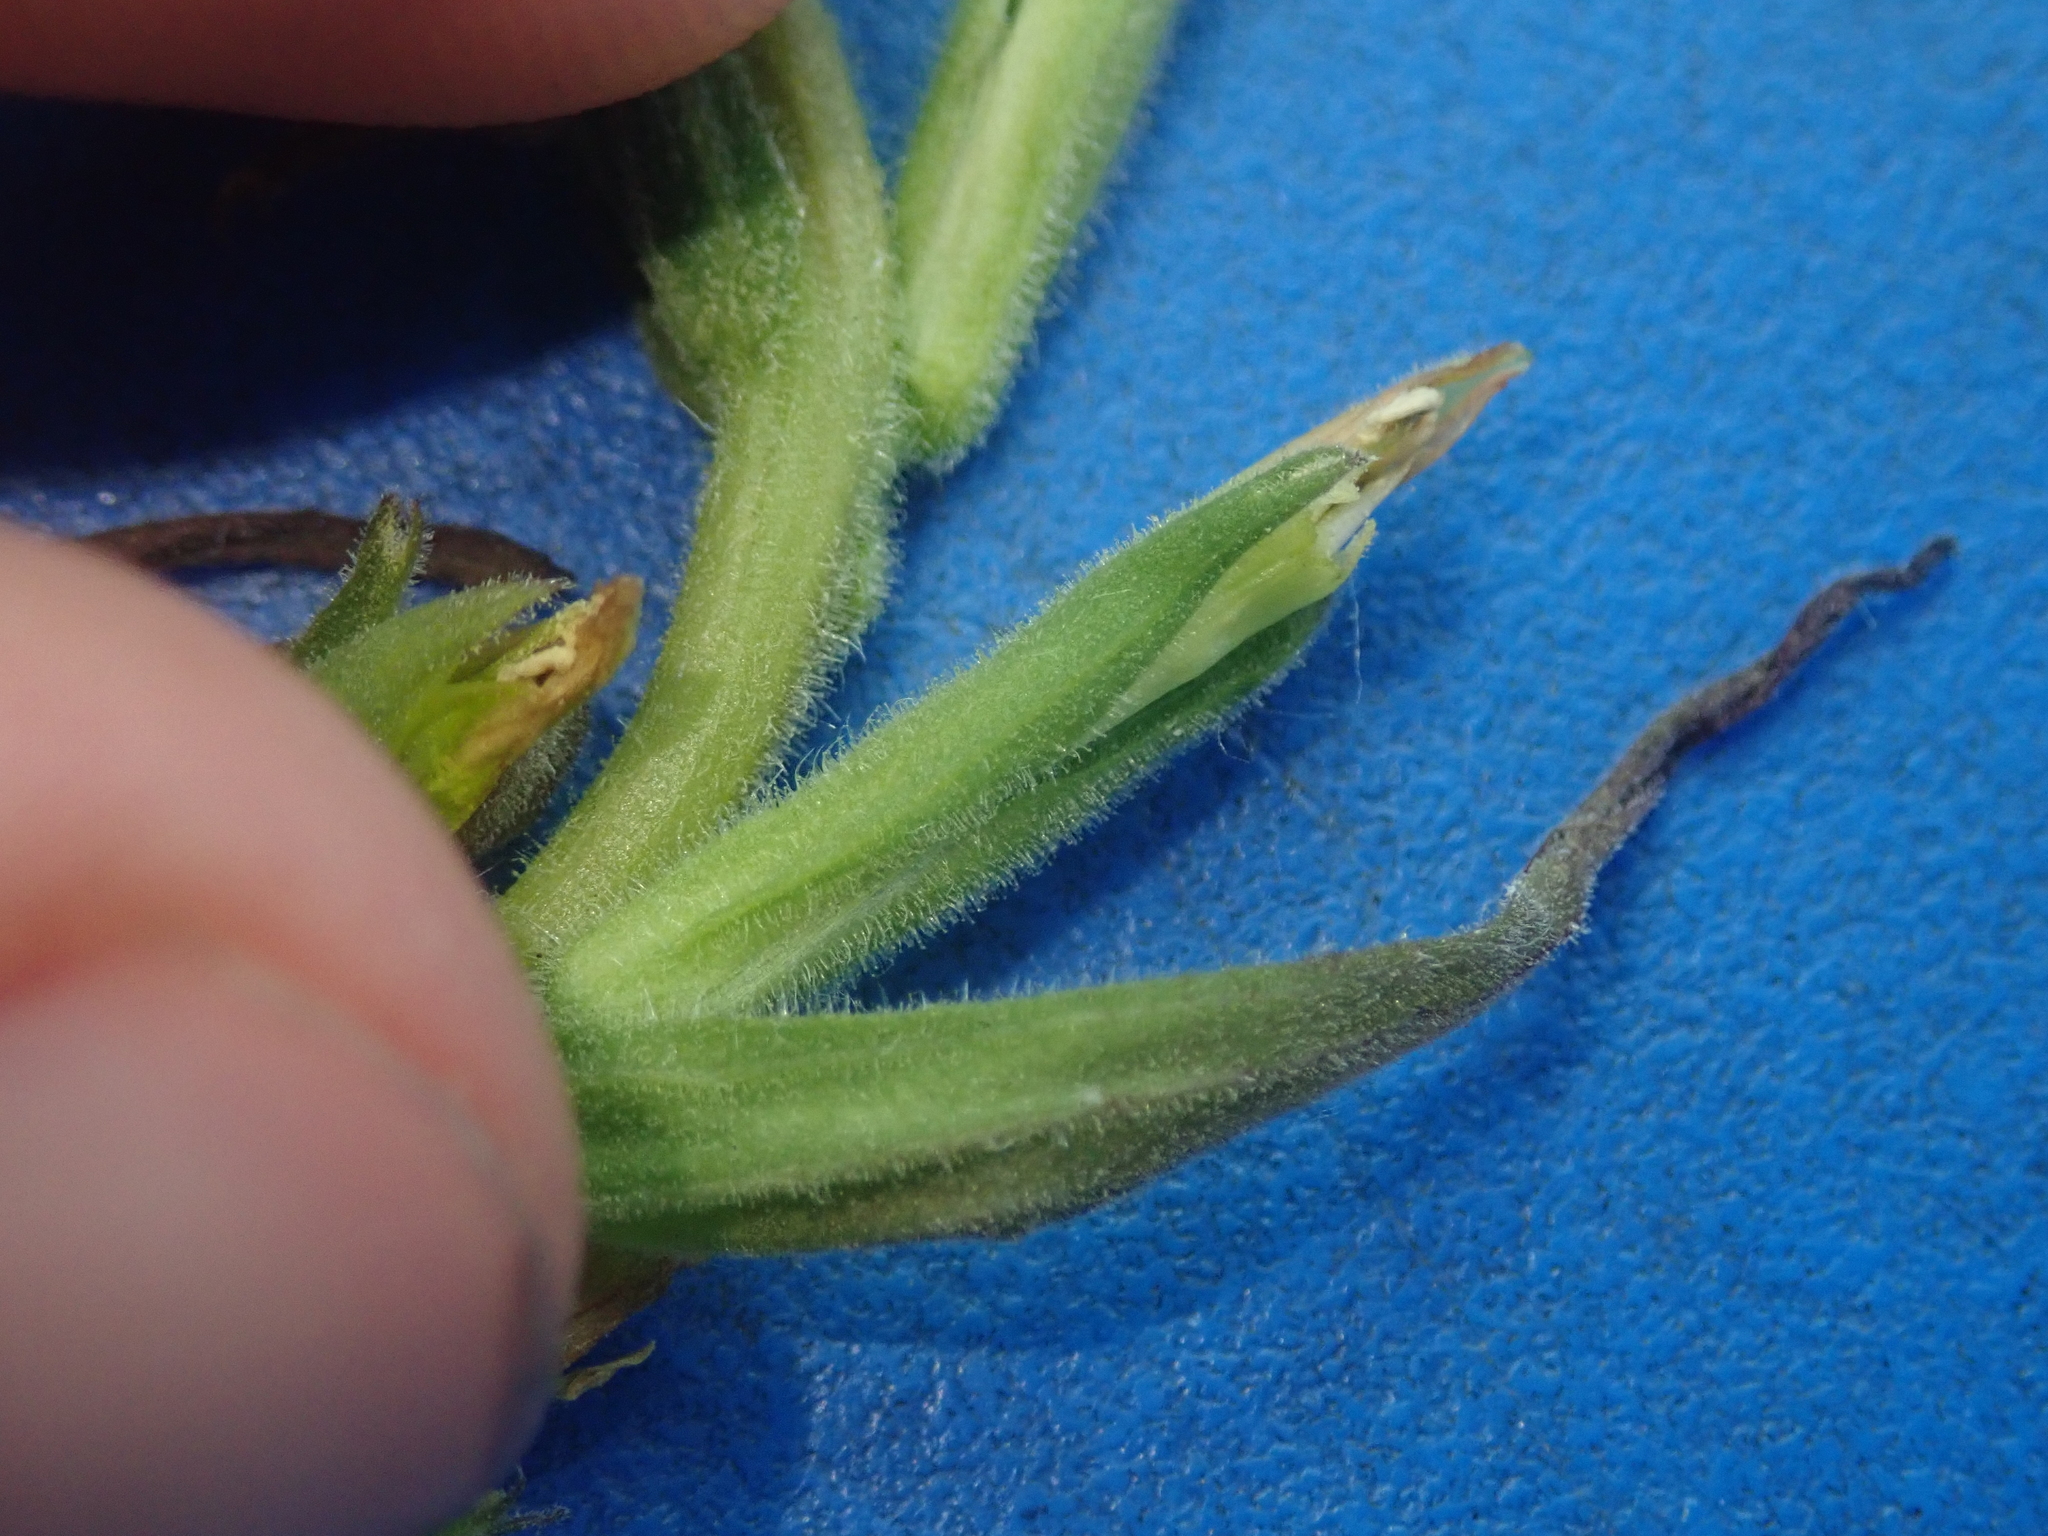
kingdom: Plantae
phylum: Tracheophyta
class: Magnoliopsida
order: Lamiales
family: Orobanchaceae
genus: Castilleja
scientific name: Castilleja minor
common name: Seep paintbrush
